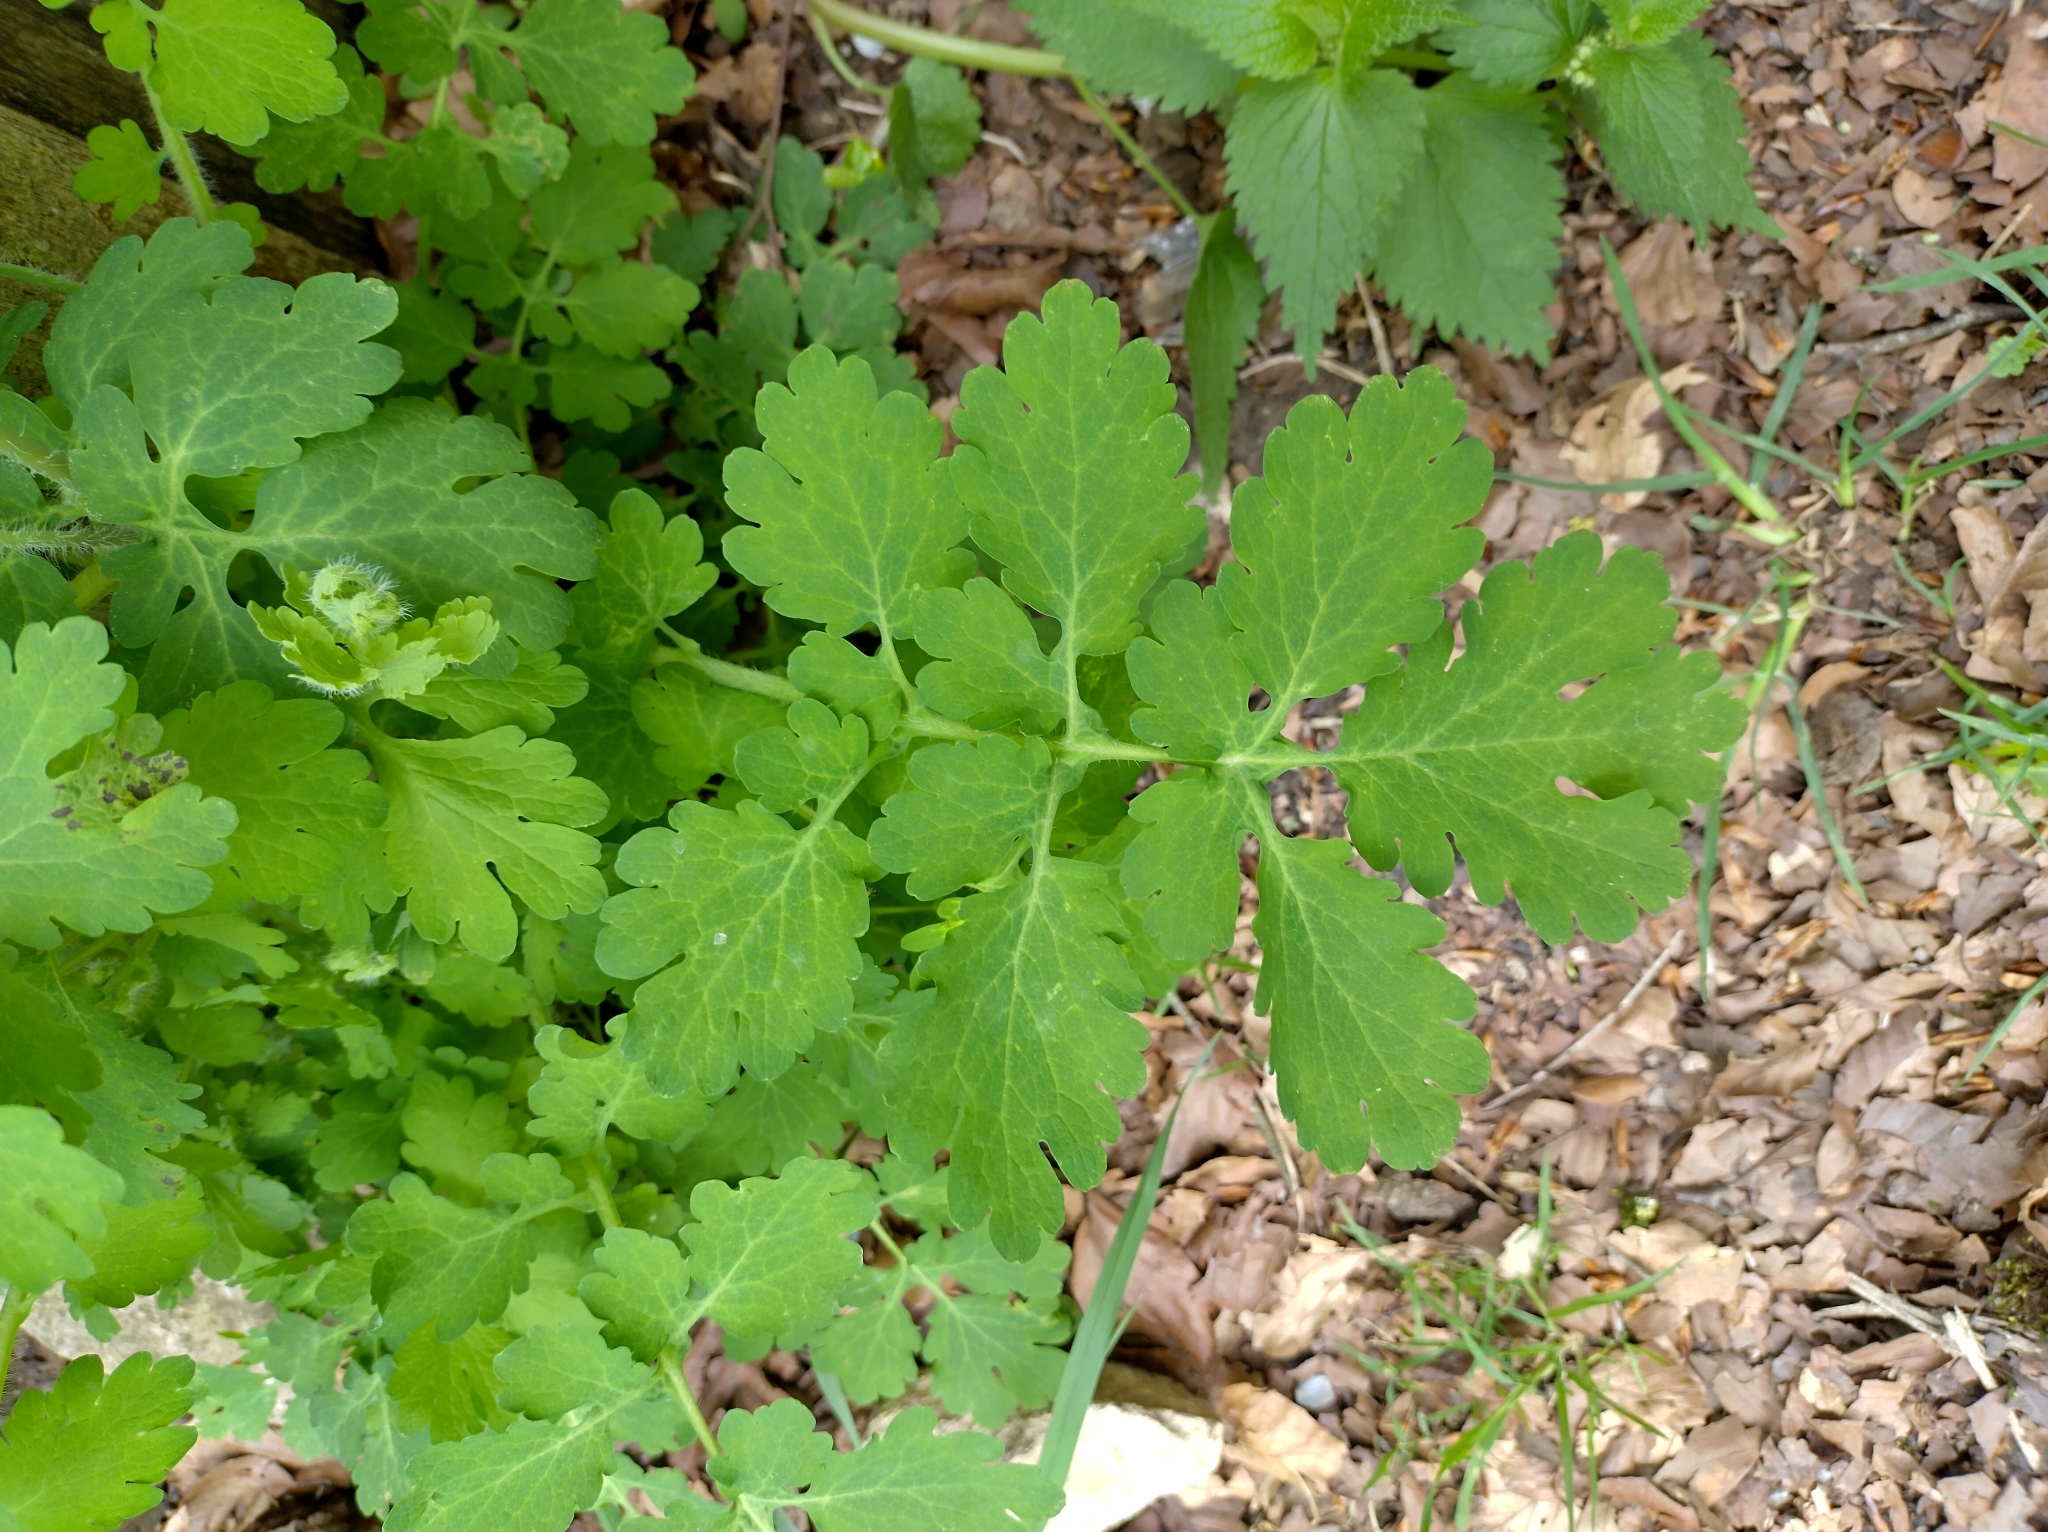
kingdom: Plantae
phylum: Tracheophyta
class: Magnoliopsida
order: Ranunculales
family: Papaveraceae
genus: Chelidonium
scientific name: Chelidonium majus
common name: Greater celandine
